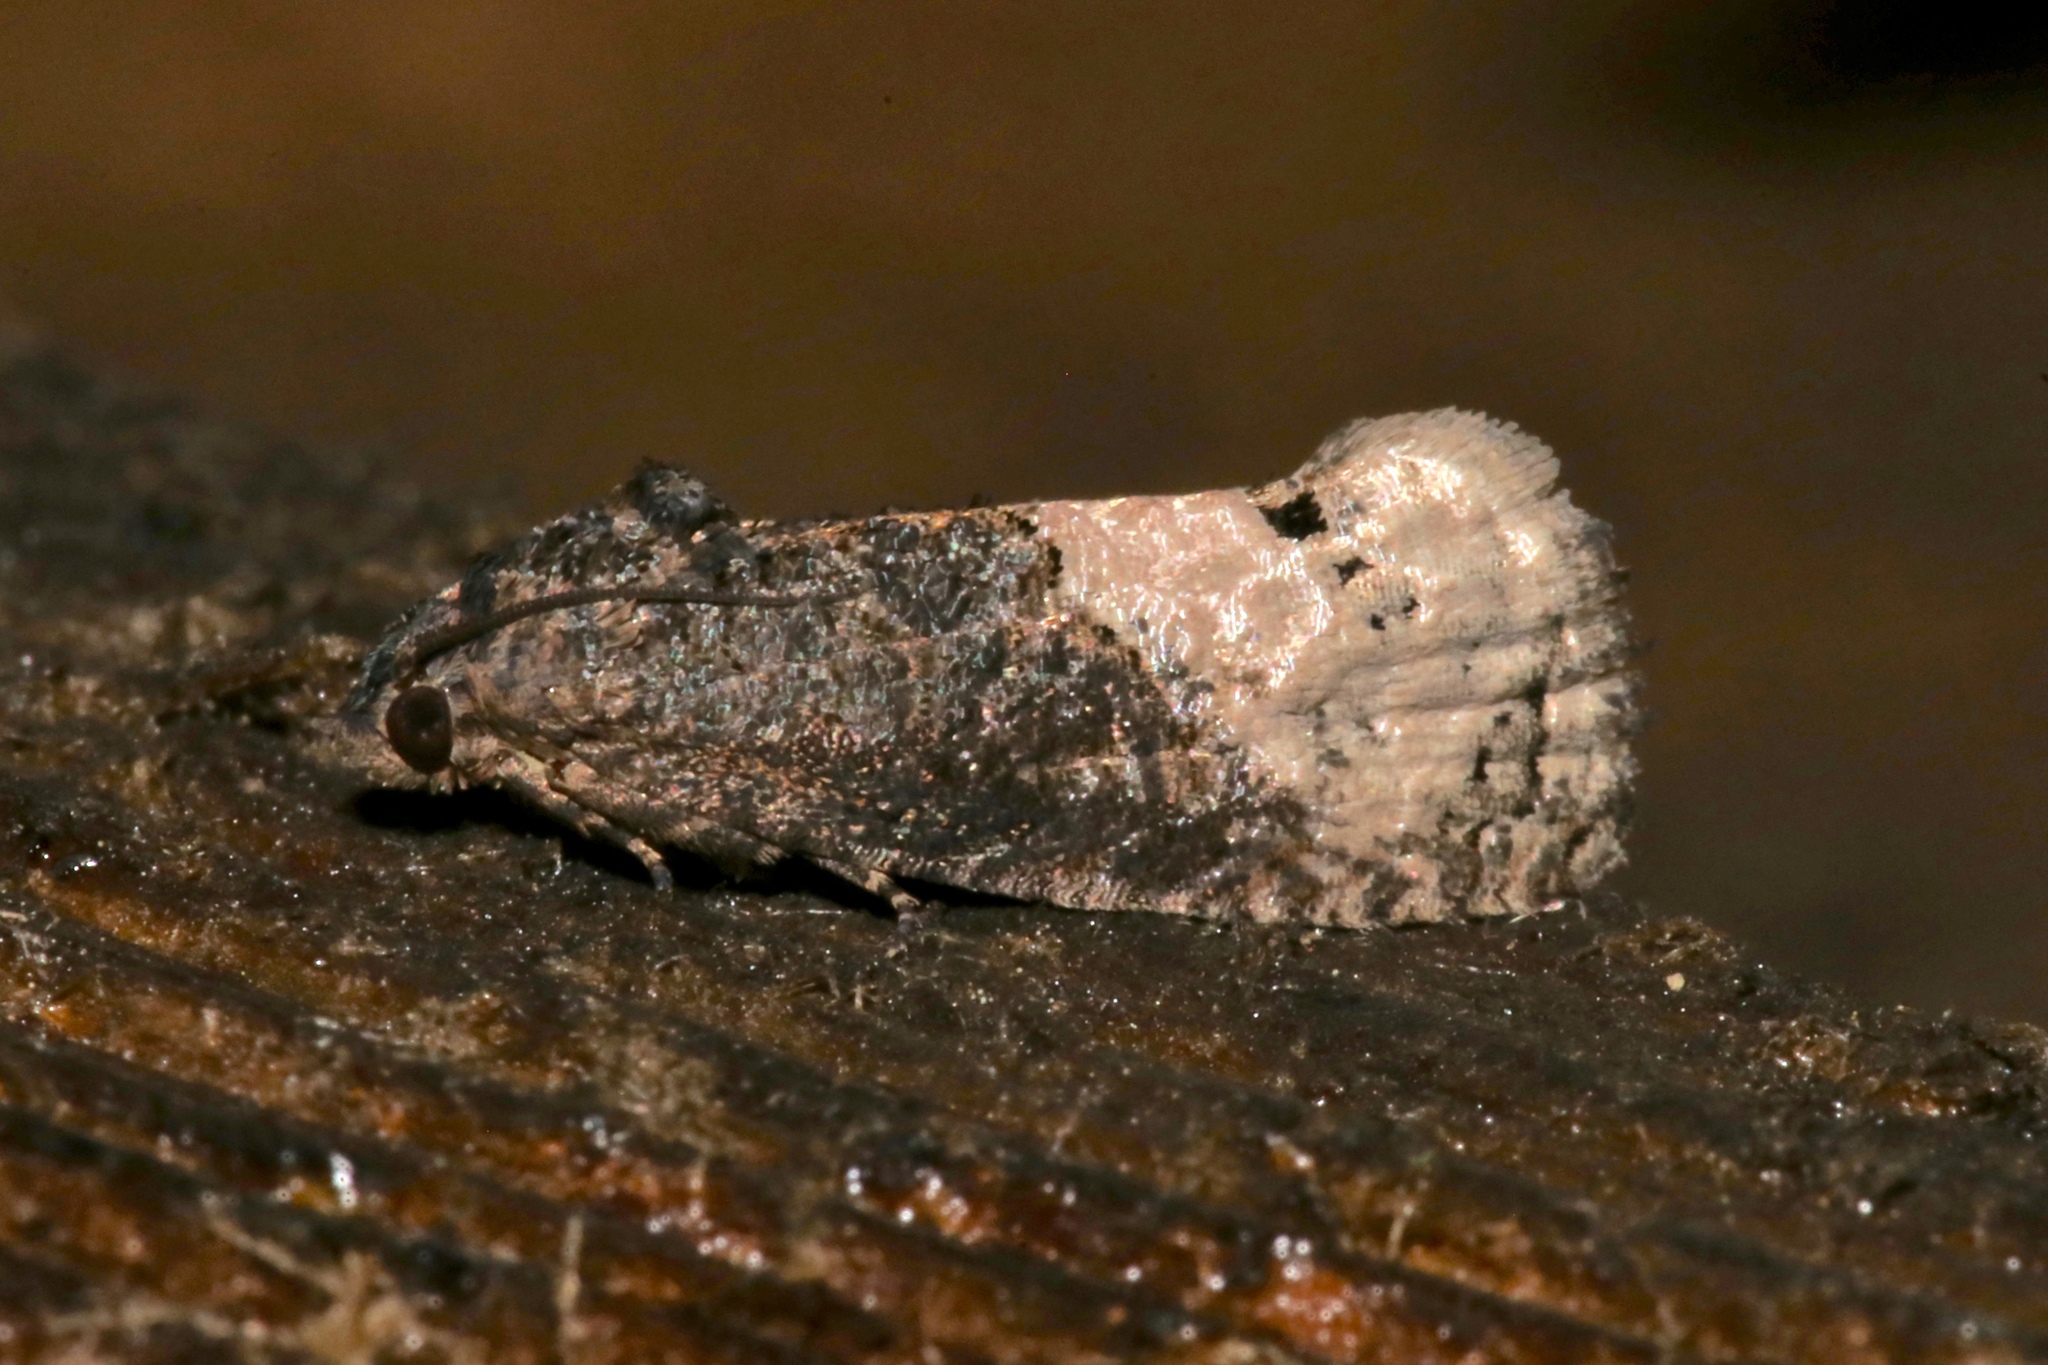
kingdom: Animalia
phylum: Arthropoda
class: Insecta
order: Lepidoptera
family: Tortricidae
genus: Hedya
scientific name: Hedya separatana
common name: Pink-washed leafroller moth
